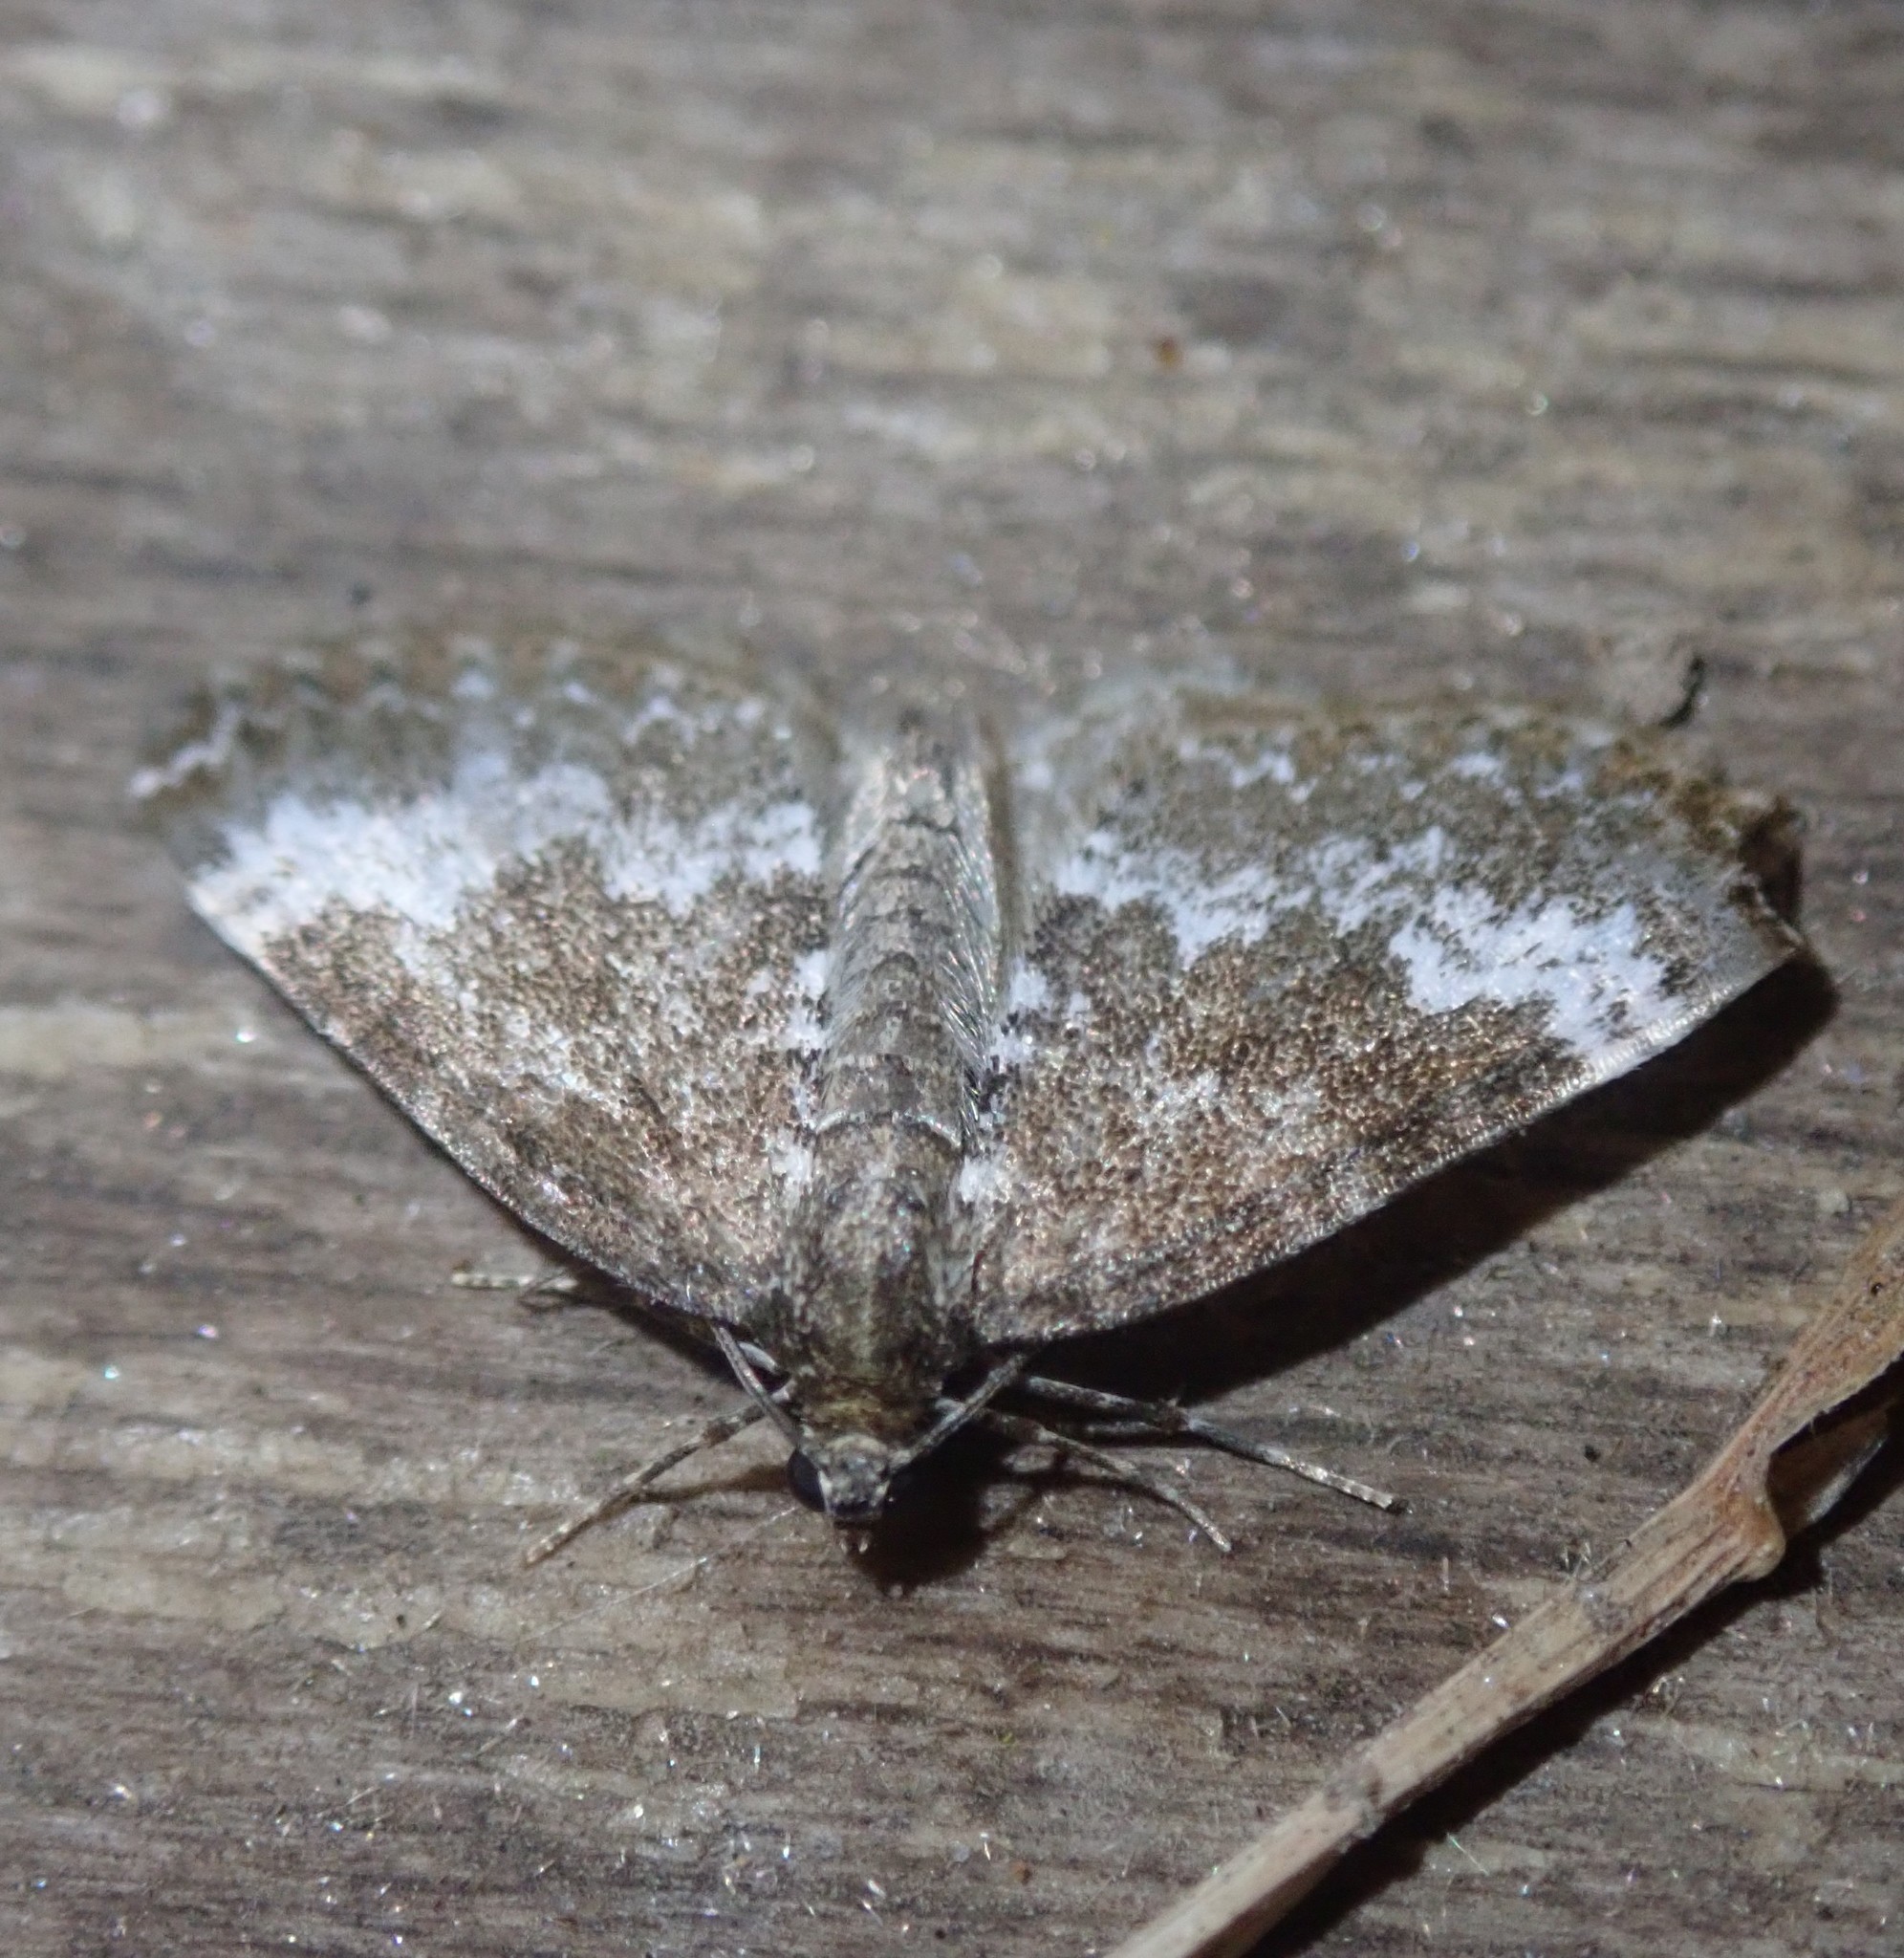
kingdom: Animalia
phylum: Arthropoda
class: Insecta
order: Lepidoptera
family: Geometridae
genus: Perizoma
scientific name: Perizoma alchemillata
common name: Small rivulet
